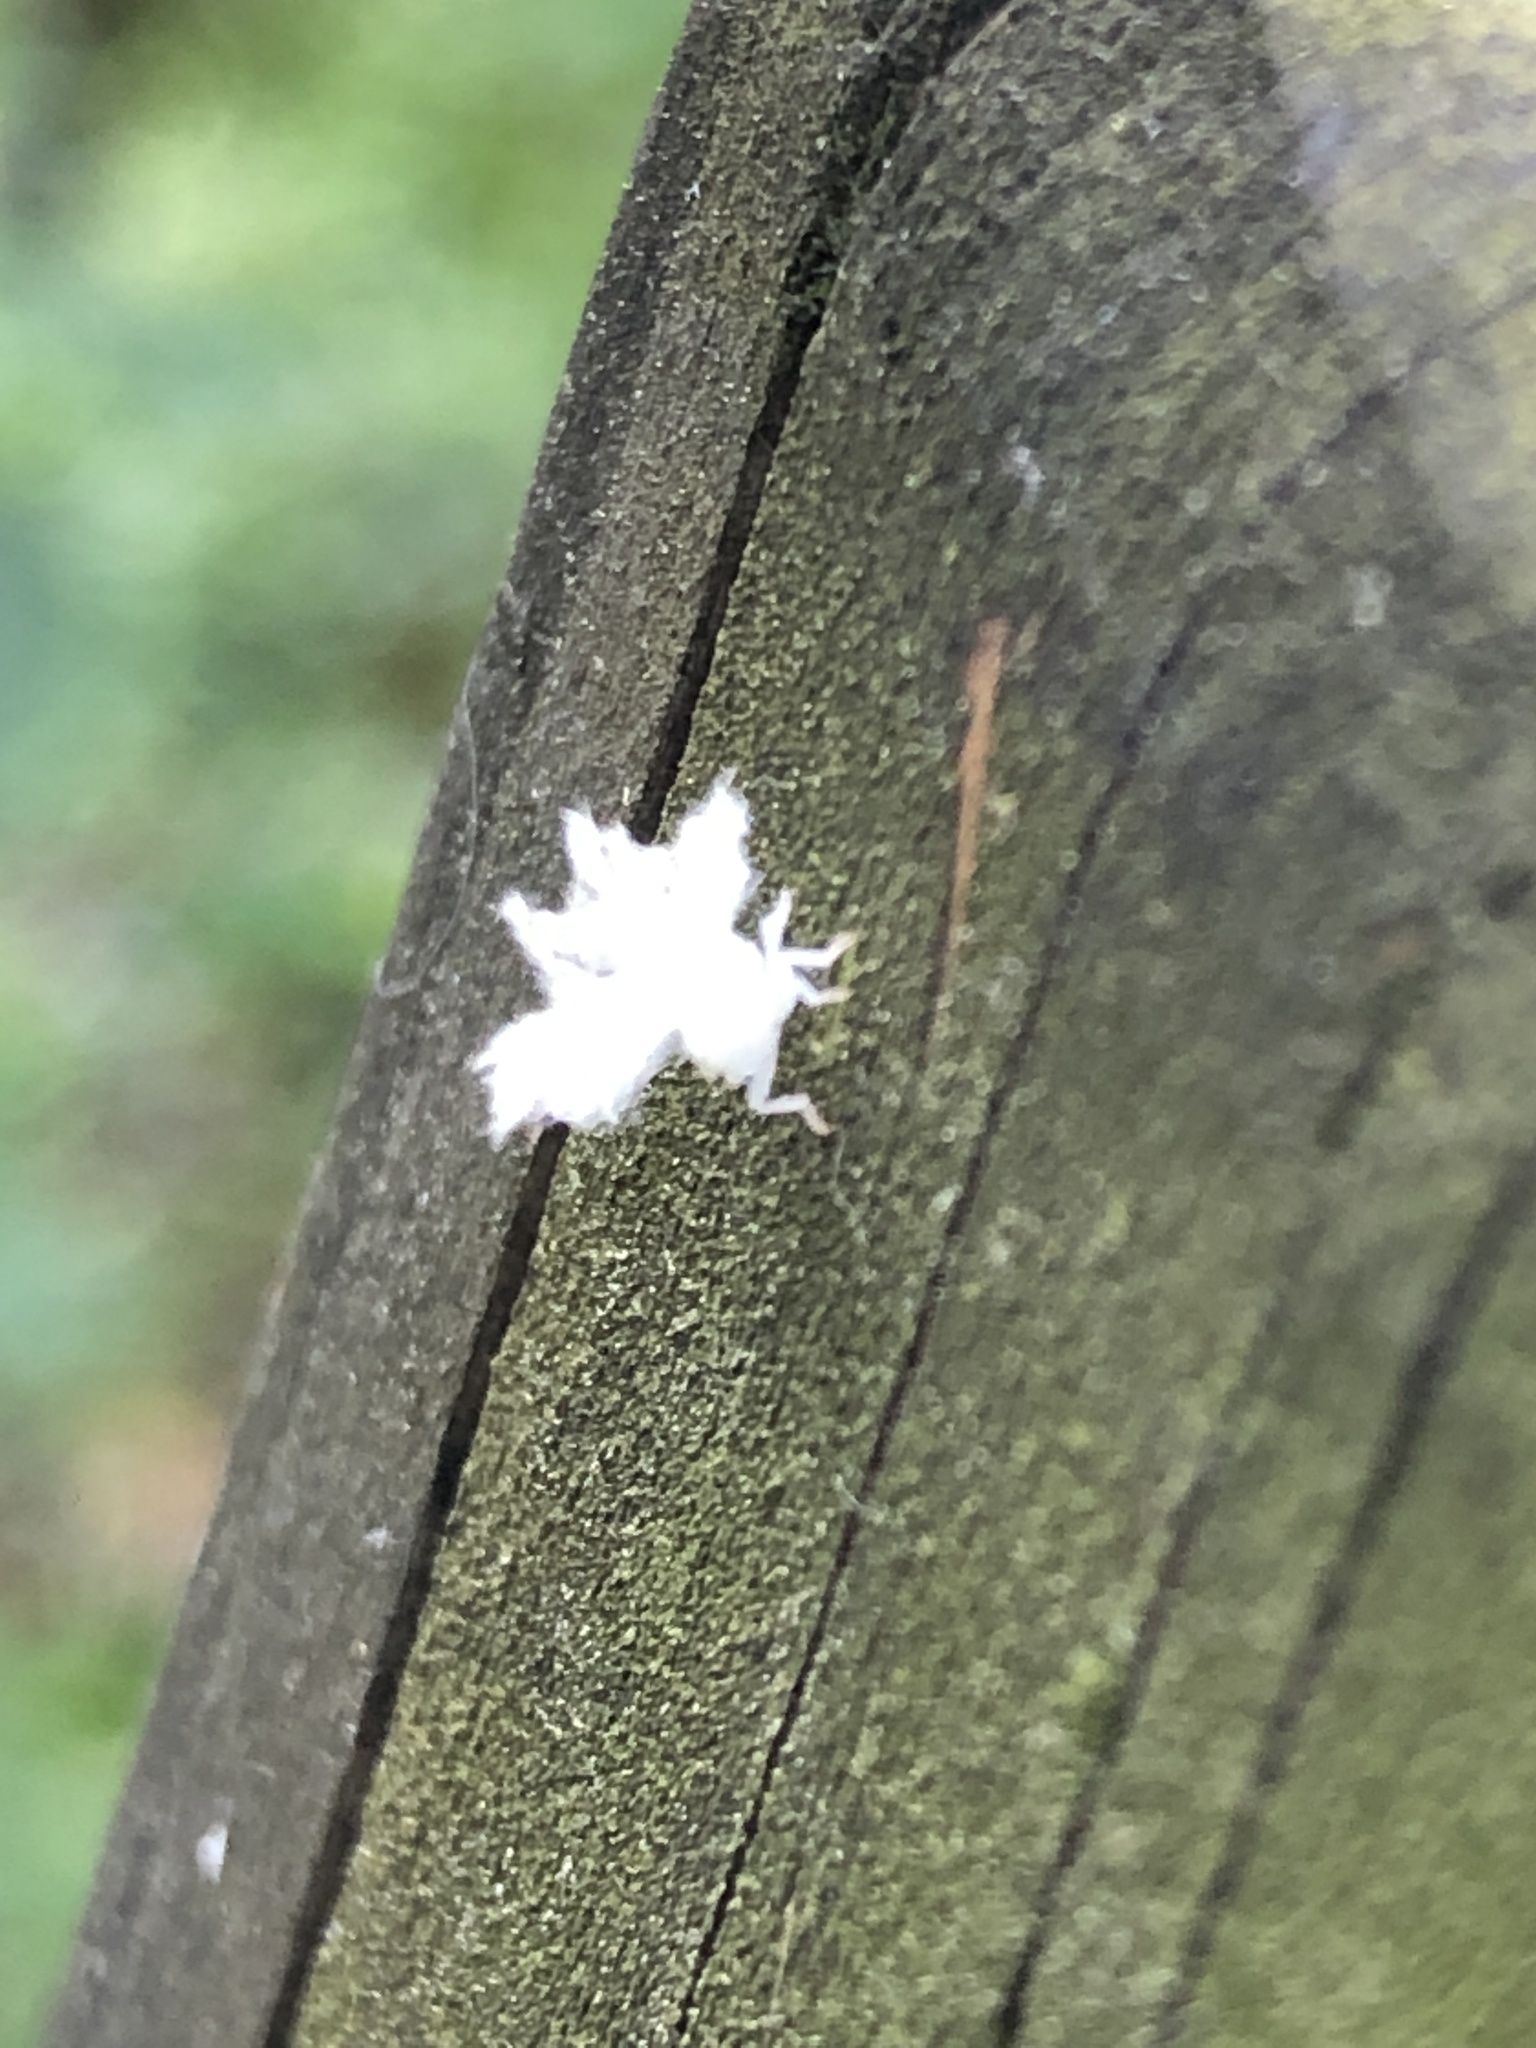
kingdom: Animalia
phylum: Arthropoda
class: Insecta
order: Hemiptera
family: Ricaniidae
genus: Ricanula
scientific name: Ricanula sublimata
